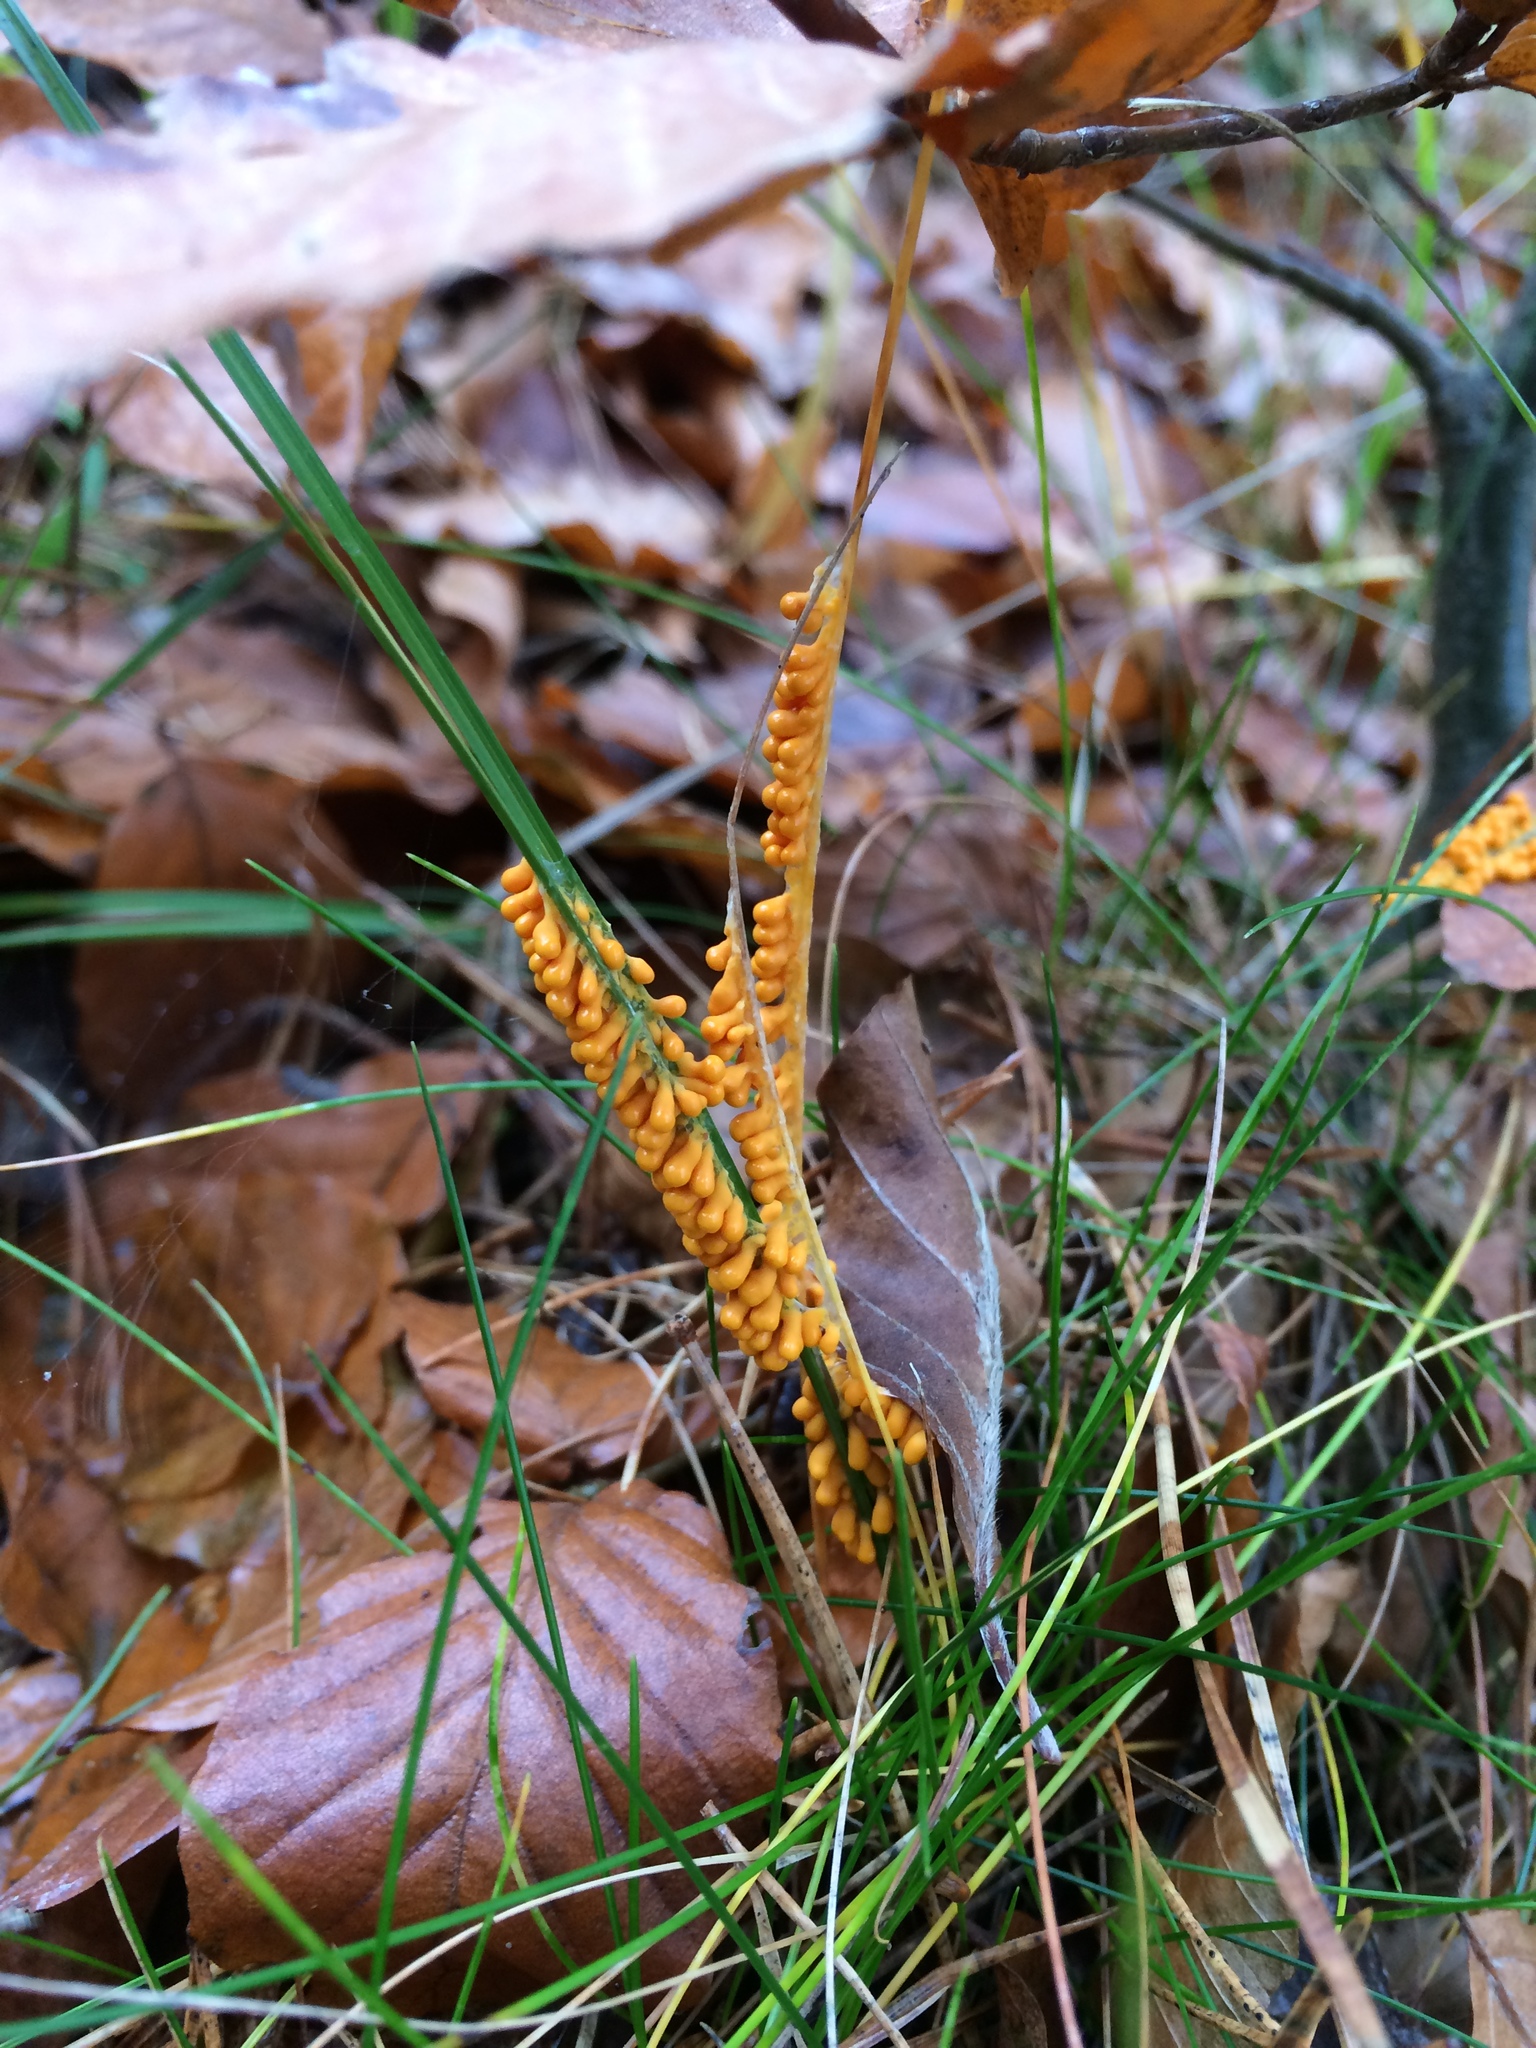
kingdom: Protozoa
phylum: Mycetozoa
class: Myxomycetes
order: Physarales
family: Physaraceae
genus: Leocarpus
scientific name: Leocarpus fragilis
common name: Insect-egg slime
